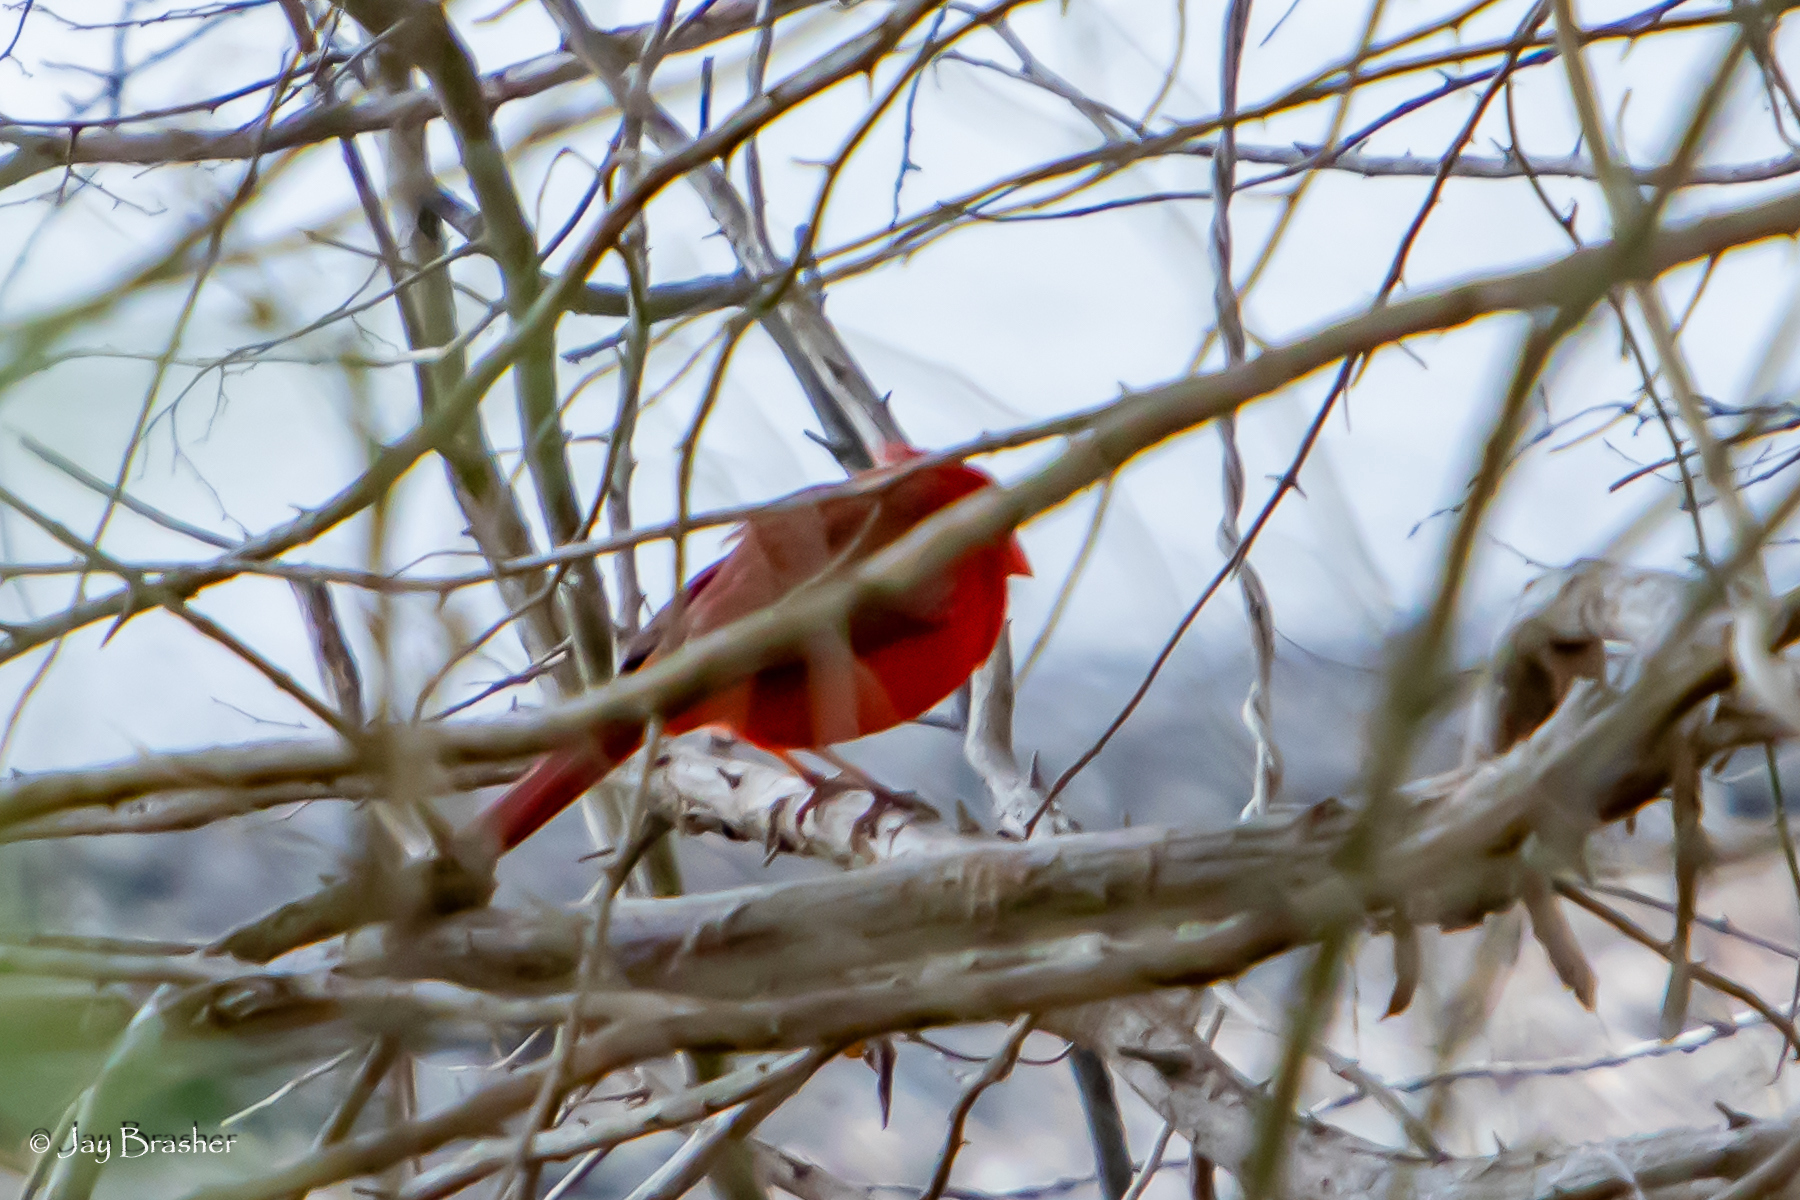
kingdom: Animalia
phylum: Chordata
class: Aves
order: Passeriformes
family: Cardinalidae
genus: Cardinalis
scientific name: Cardinalis cardinalis
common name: Northern cardinal
